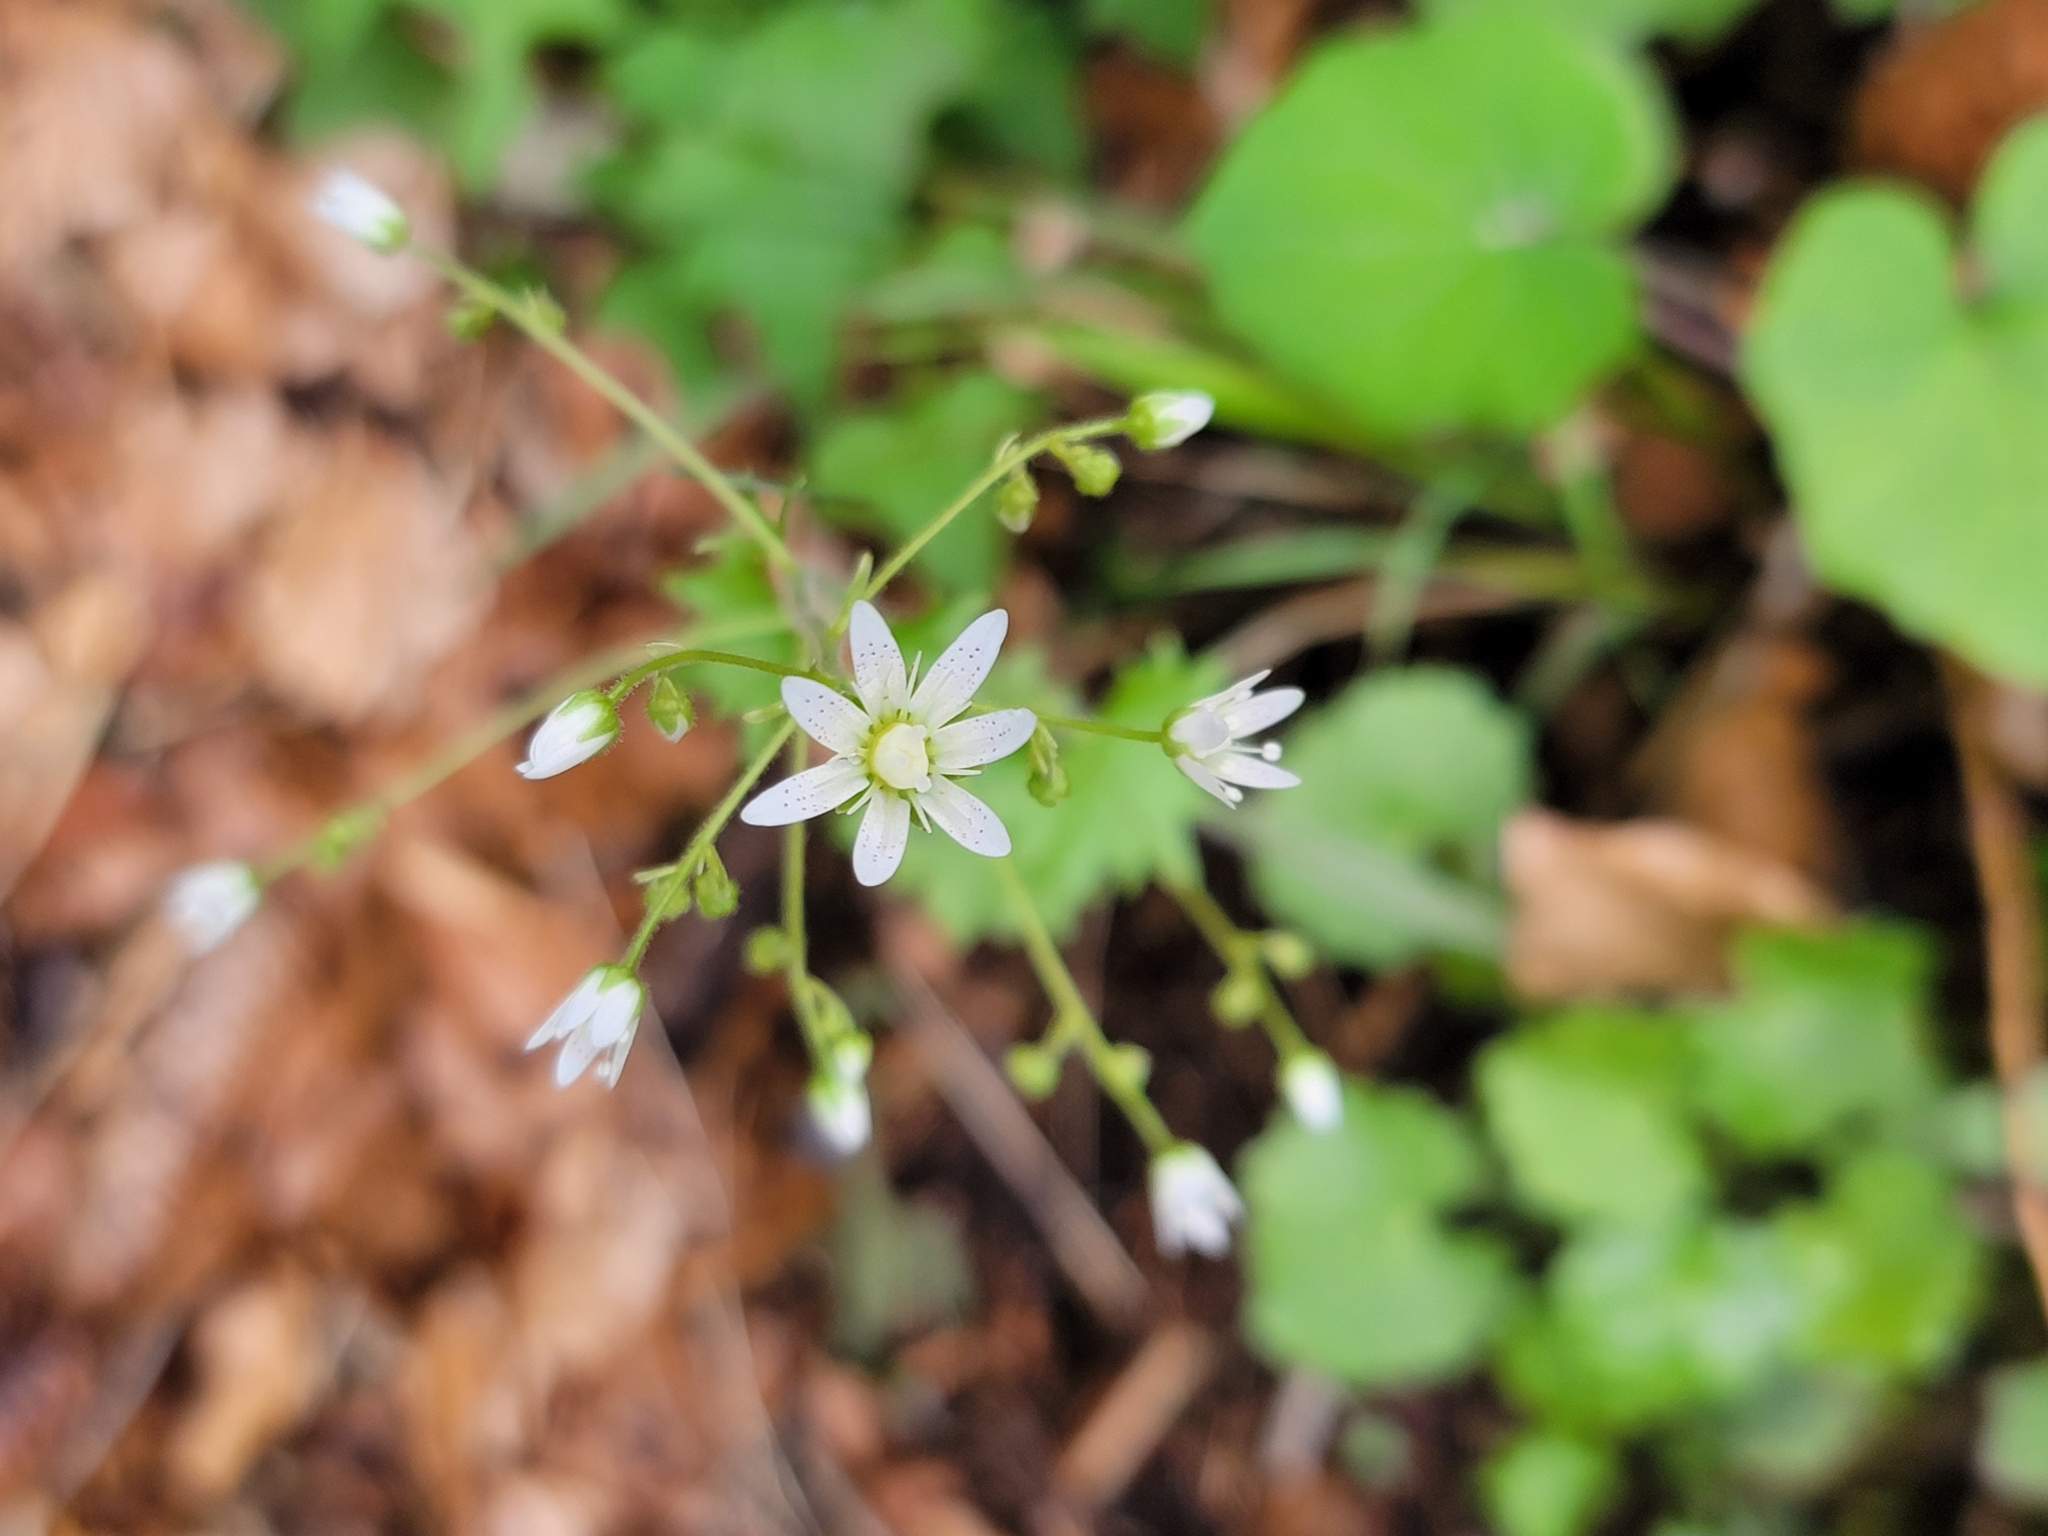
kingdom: Plantae
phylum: Tracheophyta
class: Magnoliopsida
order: Saxifragales
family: Saxifragaceae
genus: Saxifraga
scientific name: Saxifraga rotundifolia
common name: Round-leaved saxifrage
